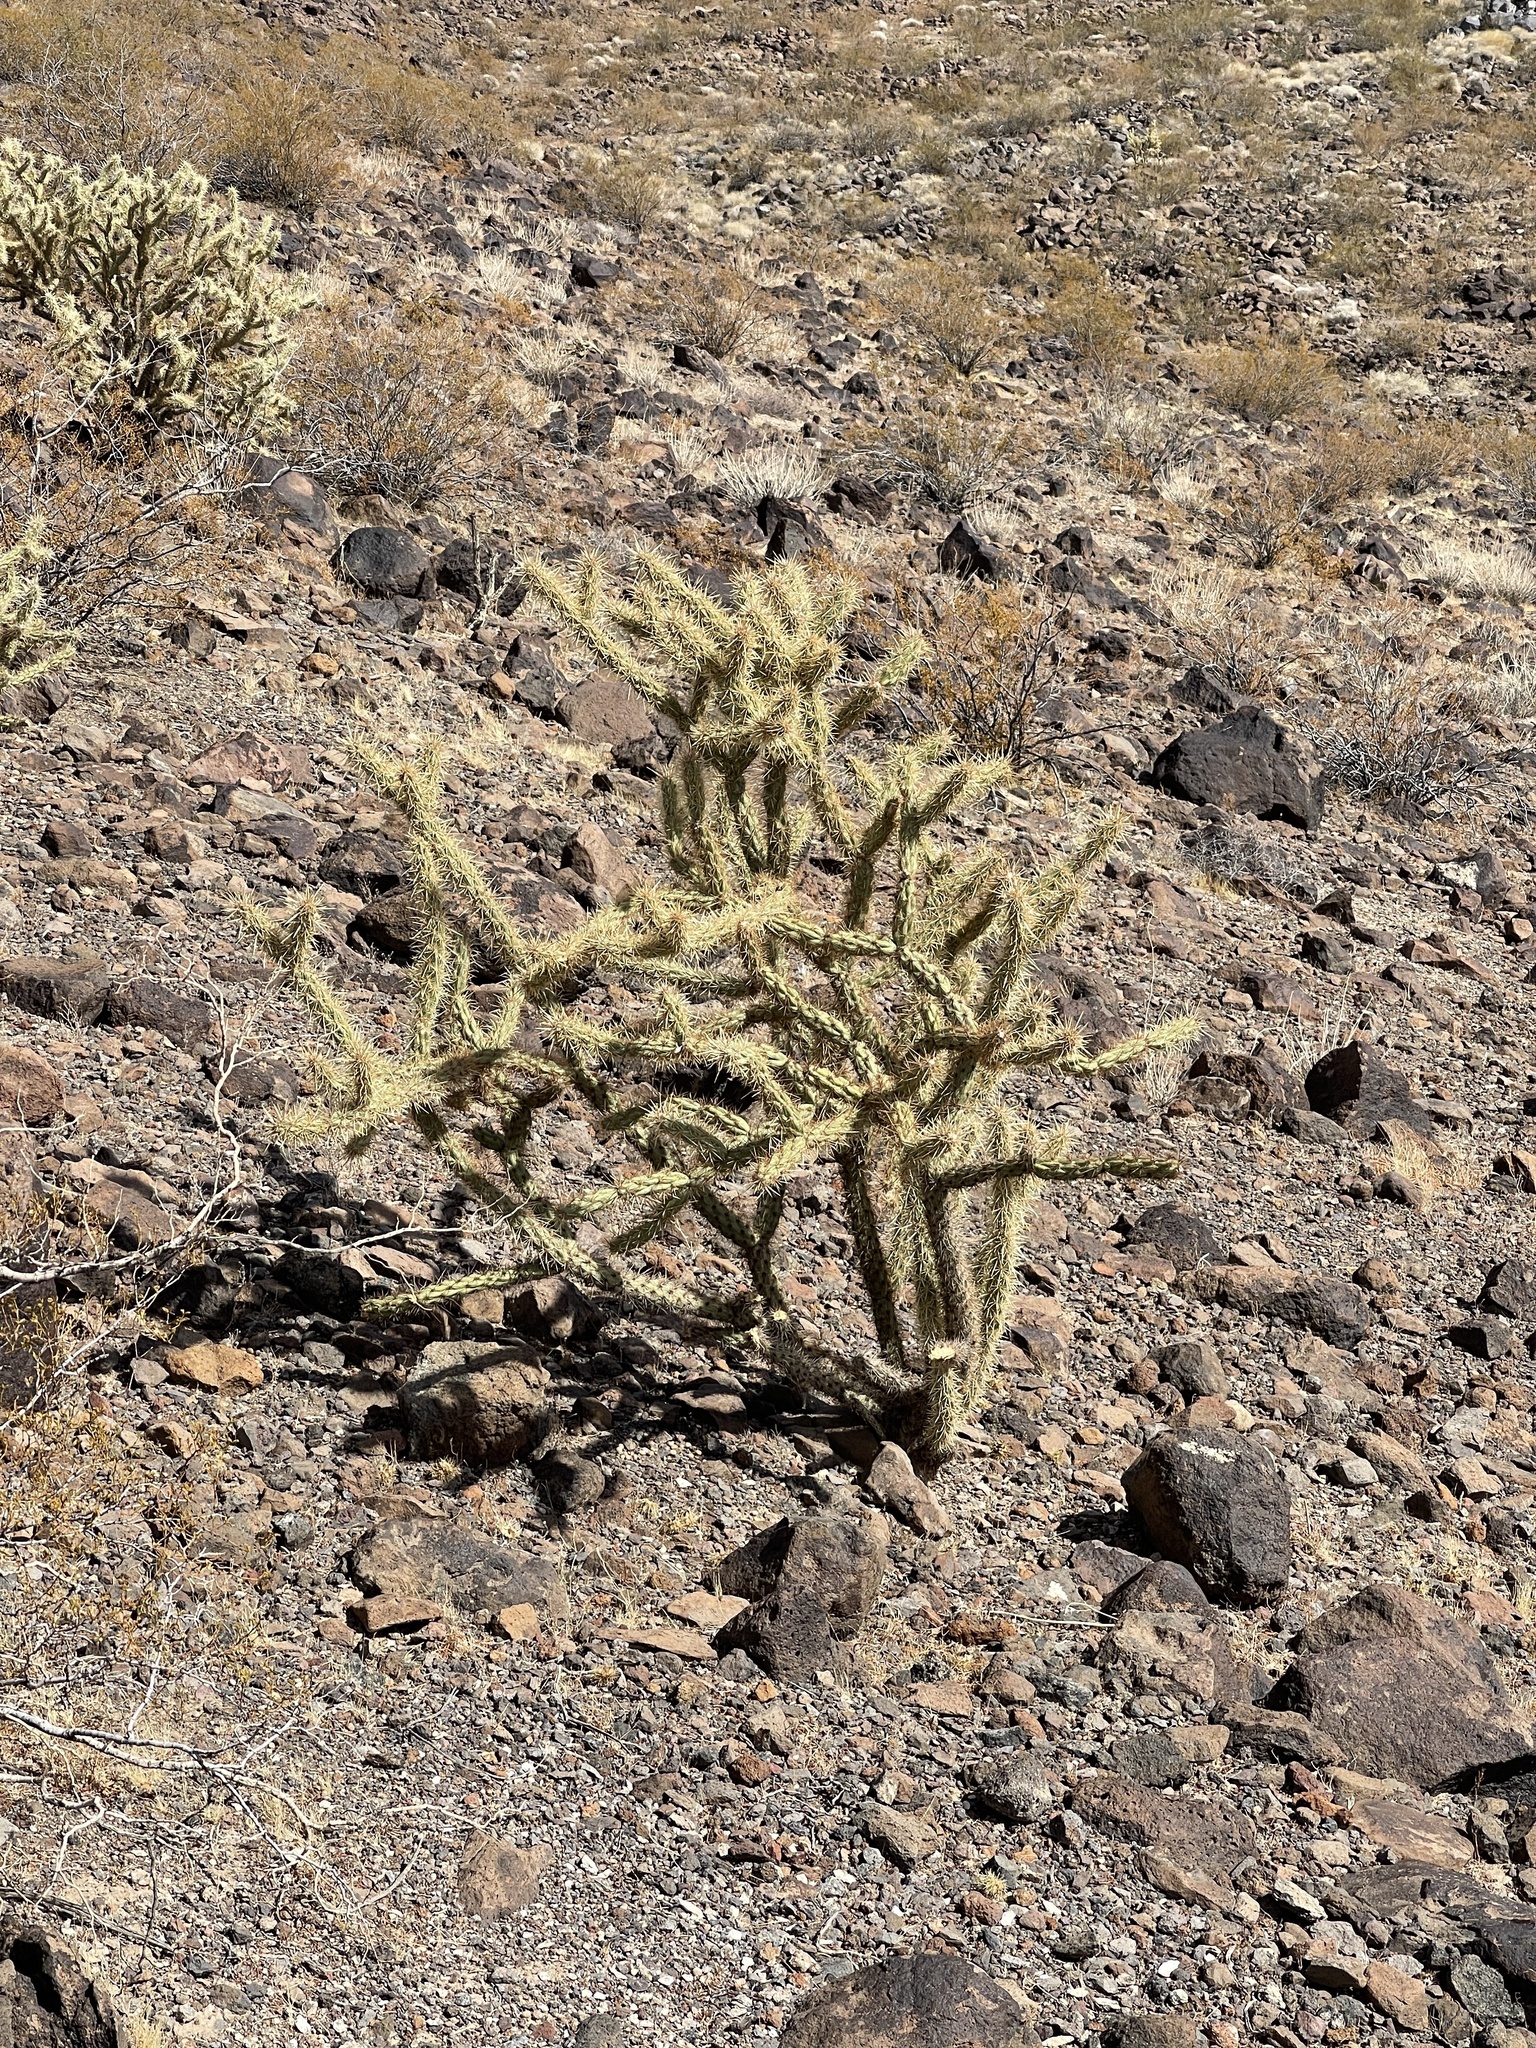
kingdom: Plantae
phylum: Tracheophyta
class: Magnoliopsida
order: Caryophyllales
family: Cactaceae
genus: Cylindropuntia
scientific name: Cylindropuntia acanthocarpa
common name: Buckhorn cholla
